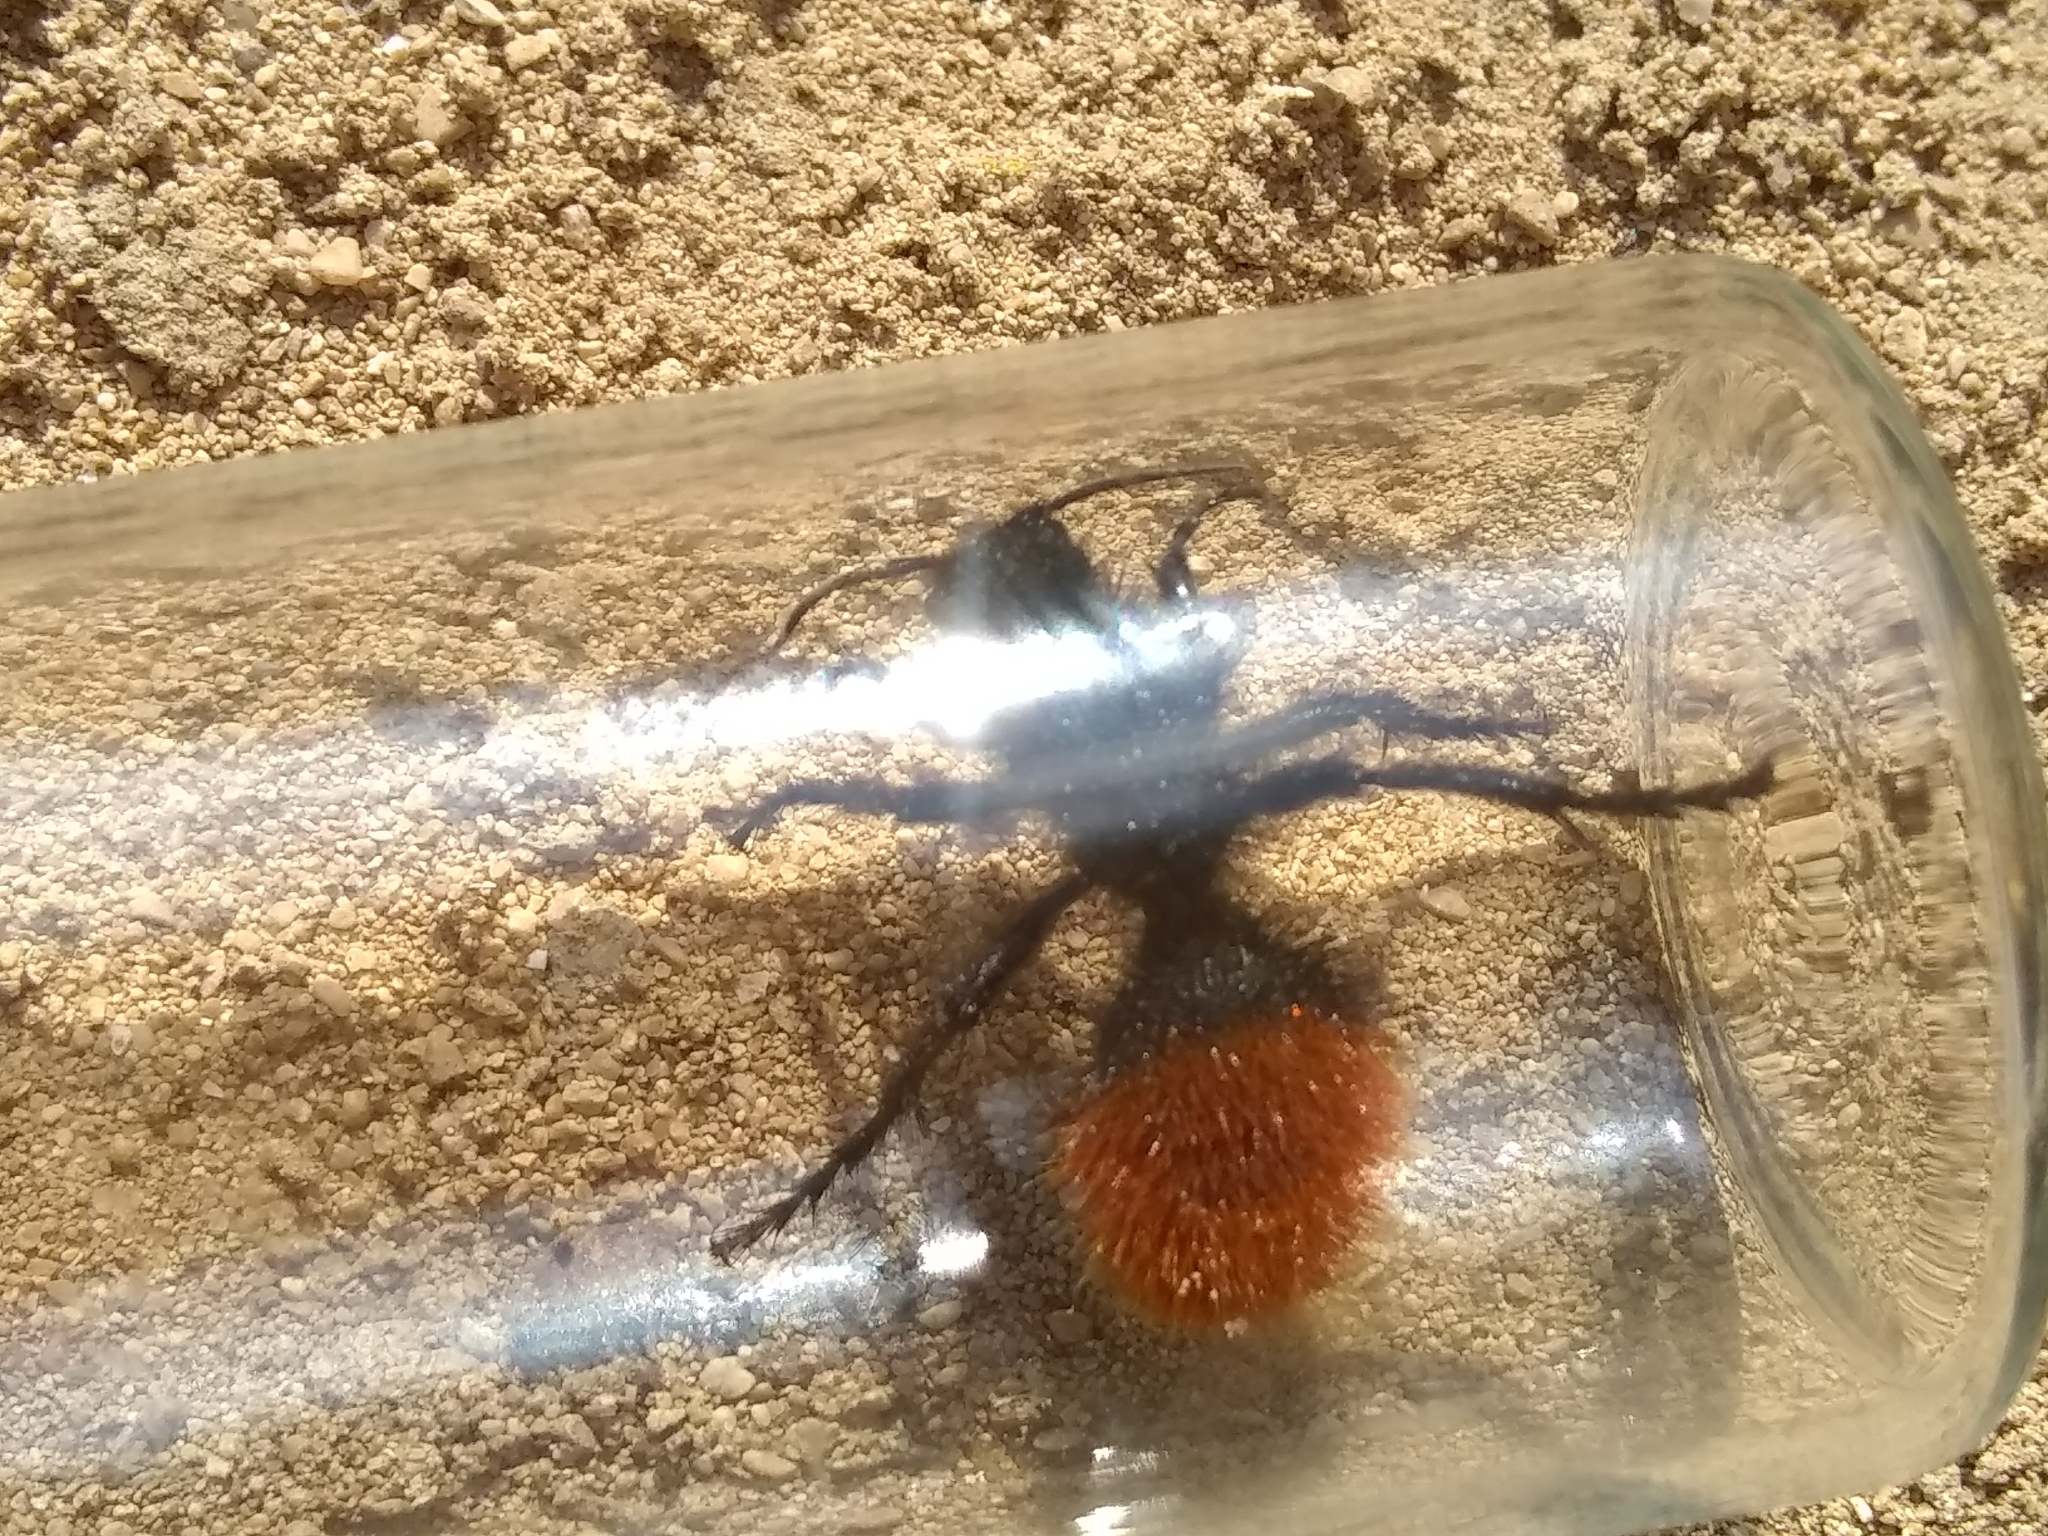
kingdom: Animalia
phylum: Arthropoda
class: Insecta
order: Hymenoptera
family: Mutillidae
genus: Dasymutilla
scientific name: Dasymutilla
